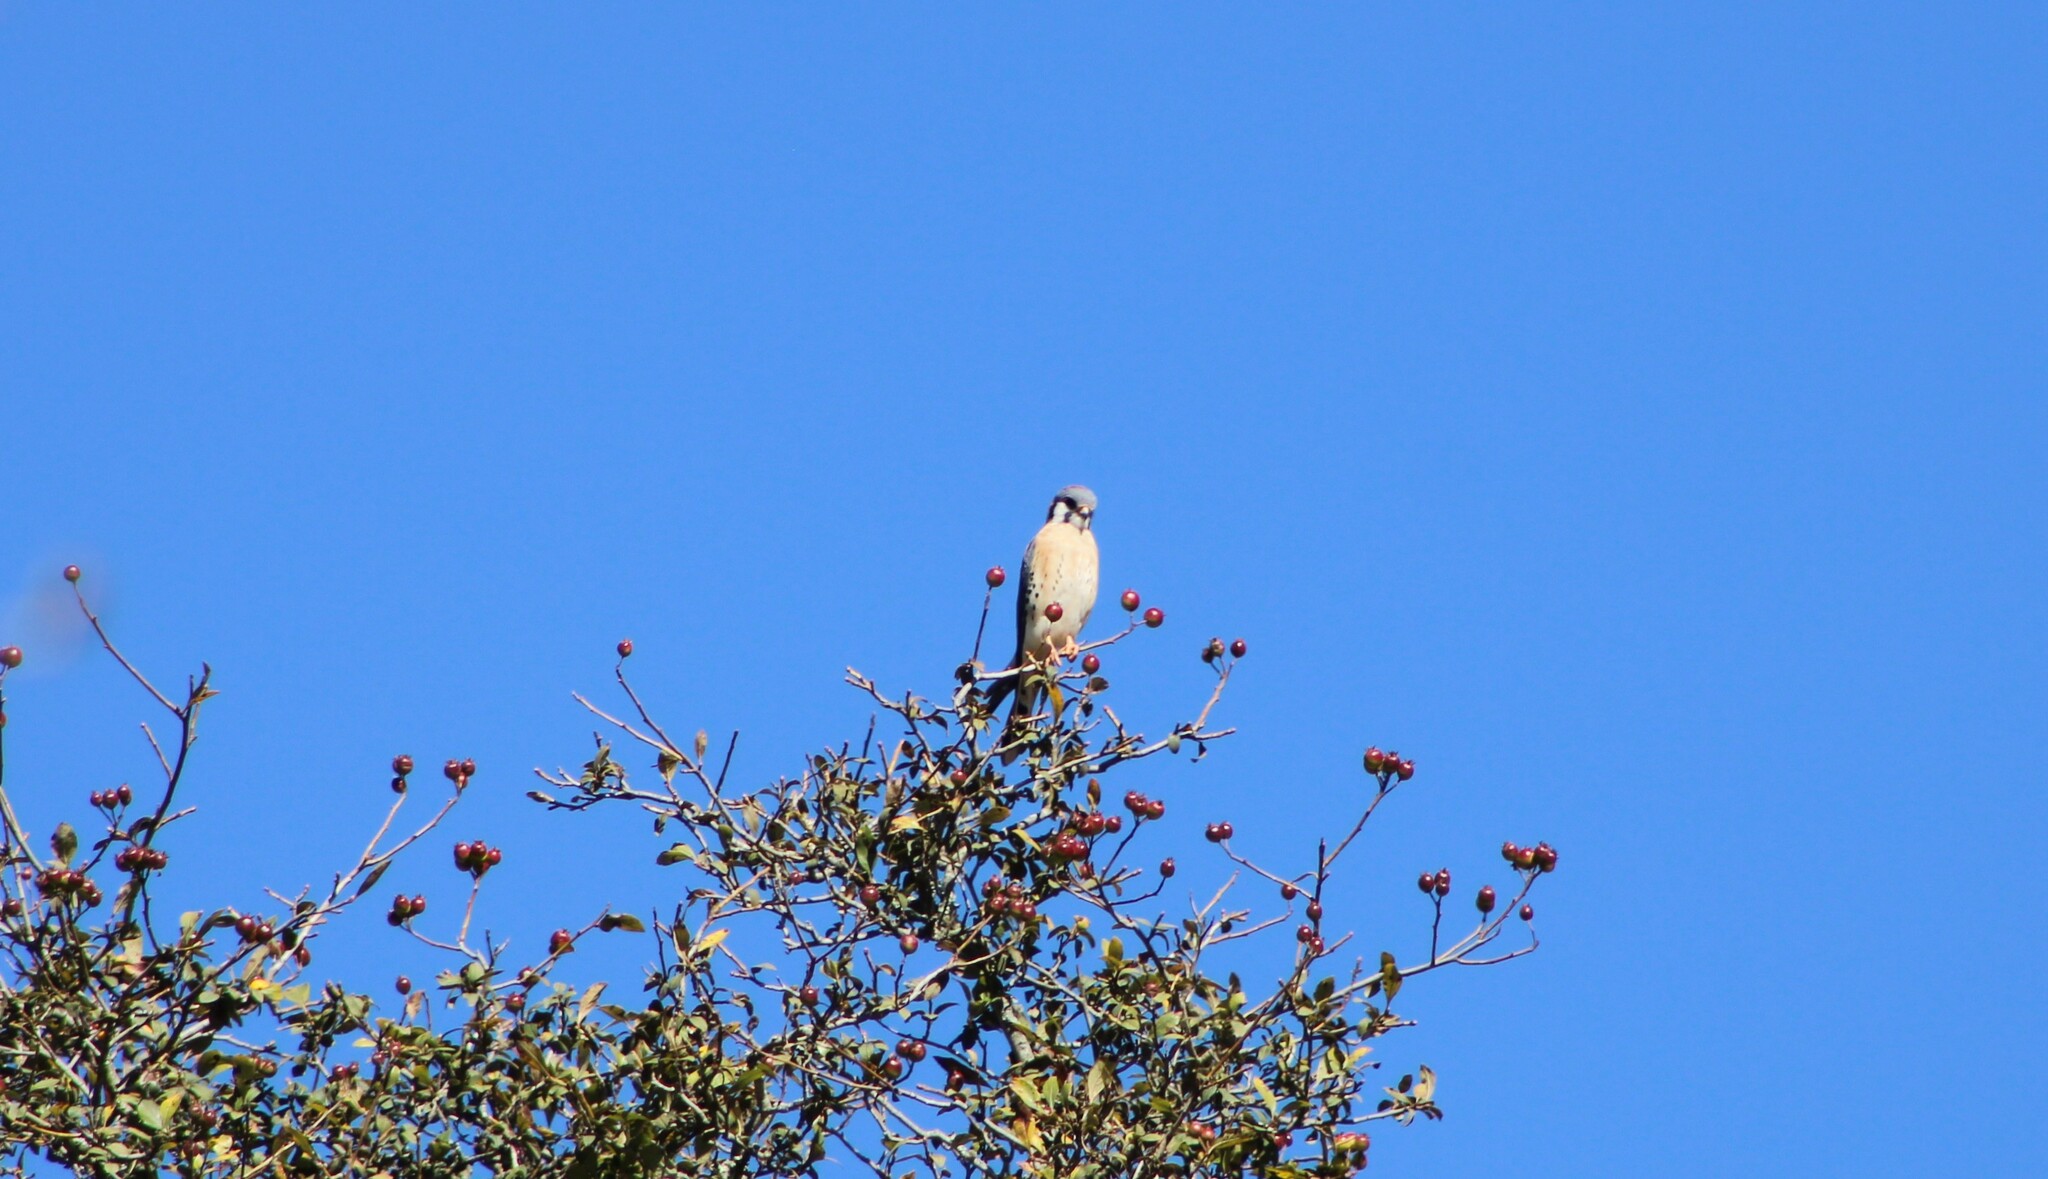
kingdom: Animalia
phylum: Chordata
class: Aves
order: Falconiformes
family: Falconidae
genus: Falco
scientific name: Falco sparverius
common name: American kestrel
